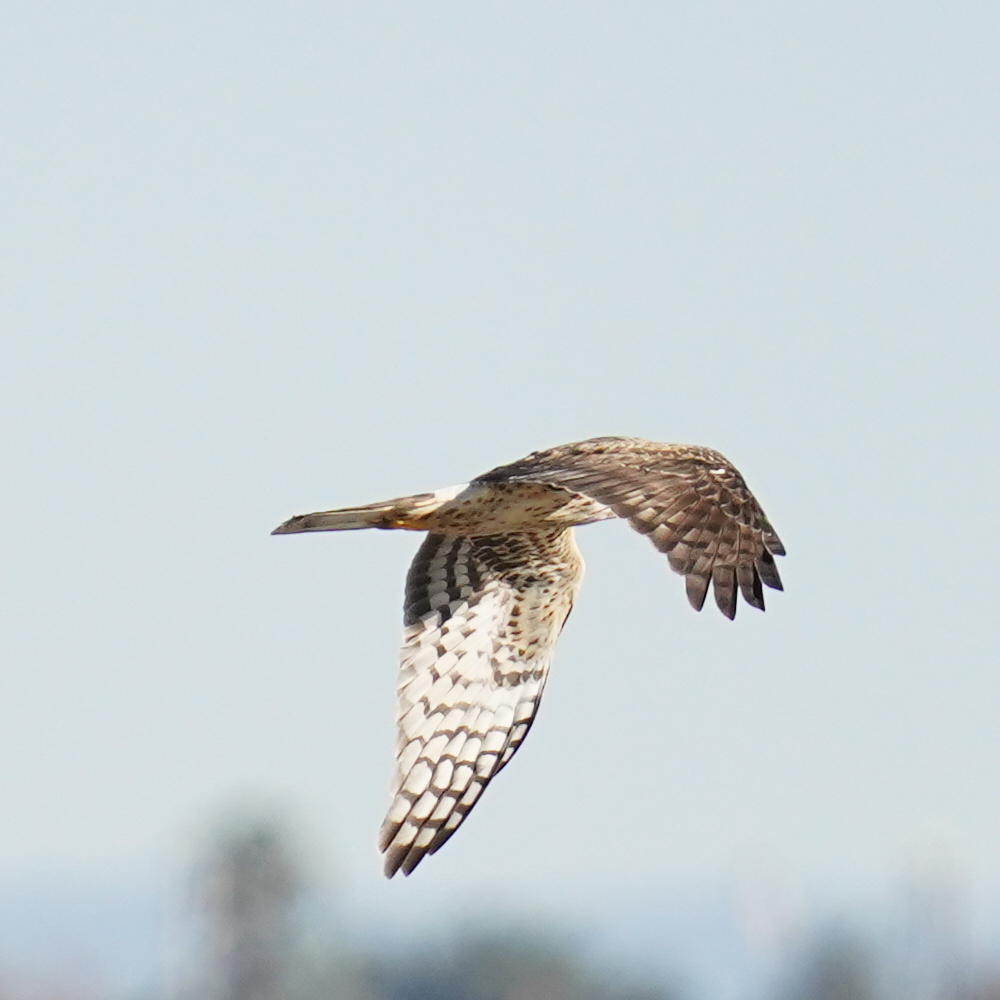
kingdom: Animalia
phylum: Chordata
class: Aves
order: Accipitriformes
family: Accipitridae
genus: Circus
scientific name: Circus cyaneus
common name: Hen harrier
